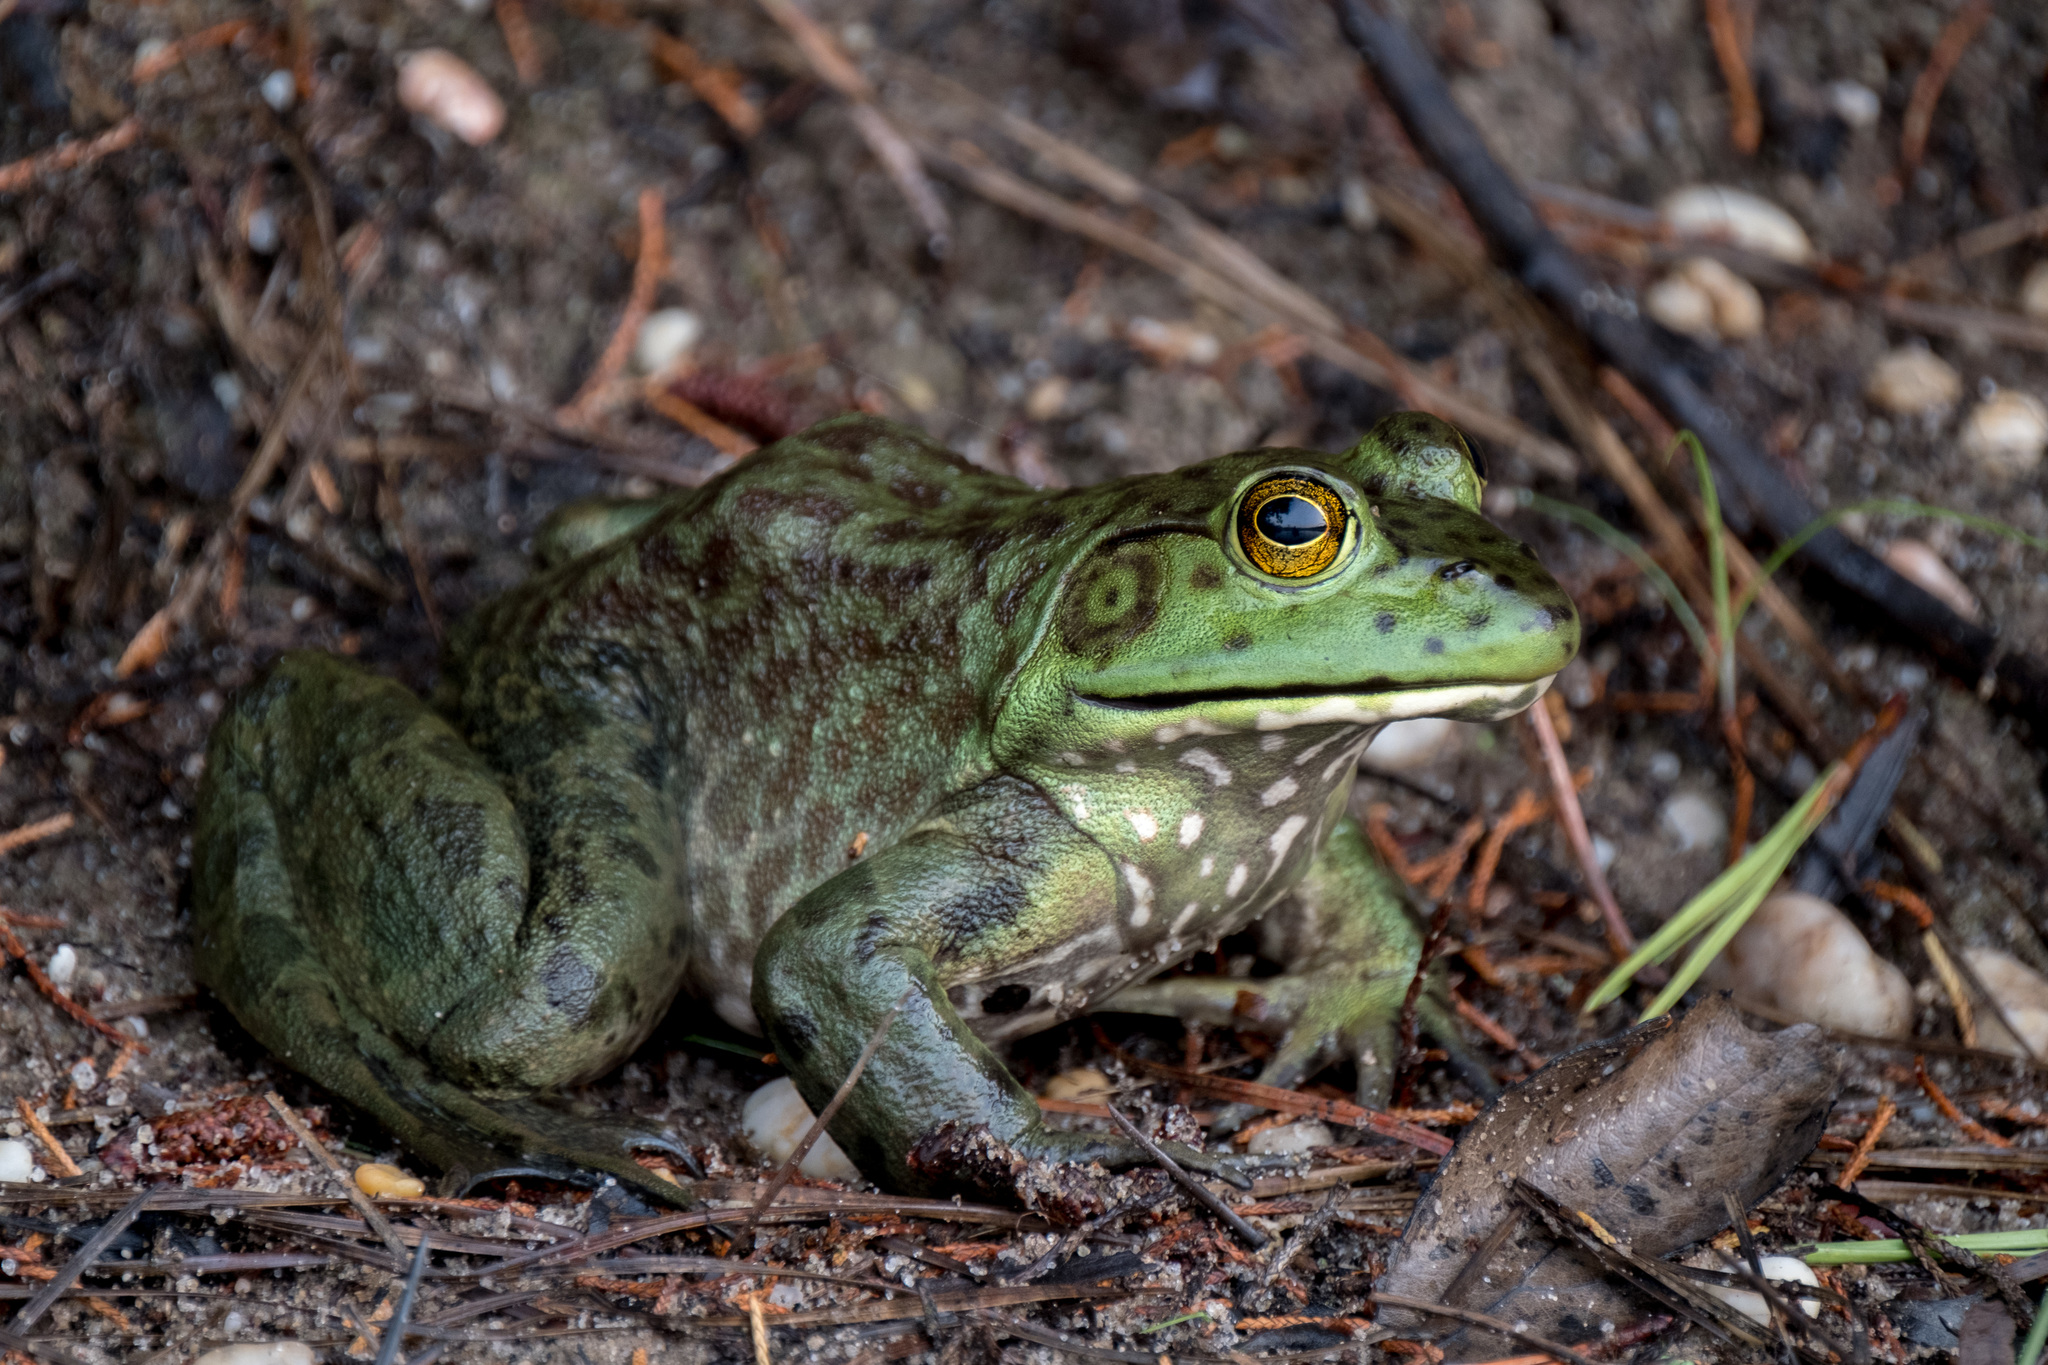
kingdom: Animalia
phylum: Chordata
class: Amphibia
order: Anura
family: Ranidae
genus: Lithobates
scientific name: Lithobates catesbeianus
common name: American bullfrog
